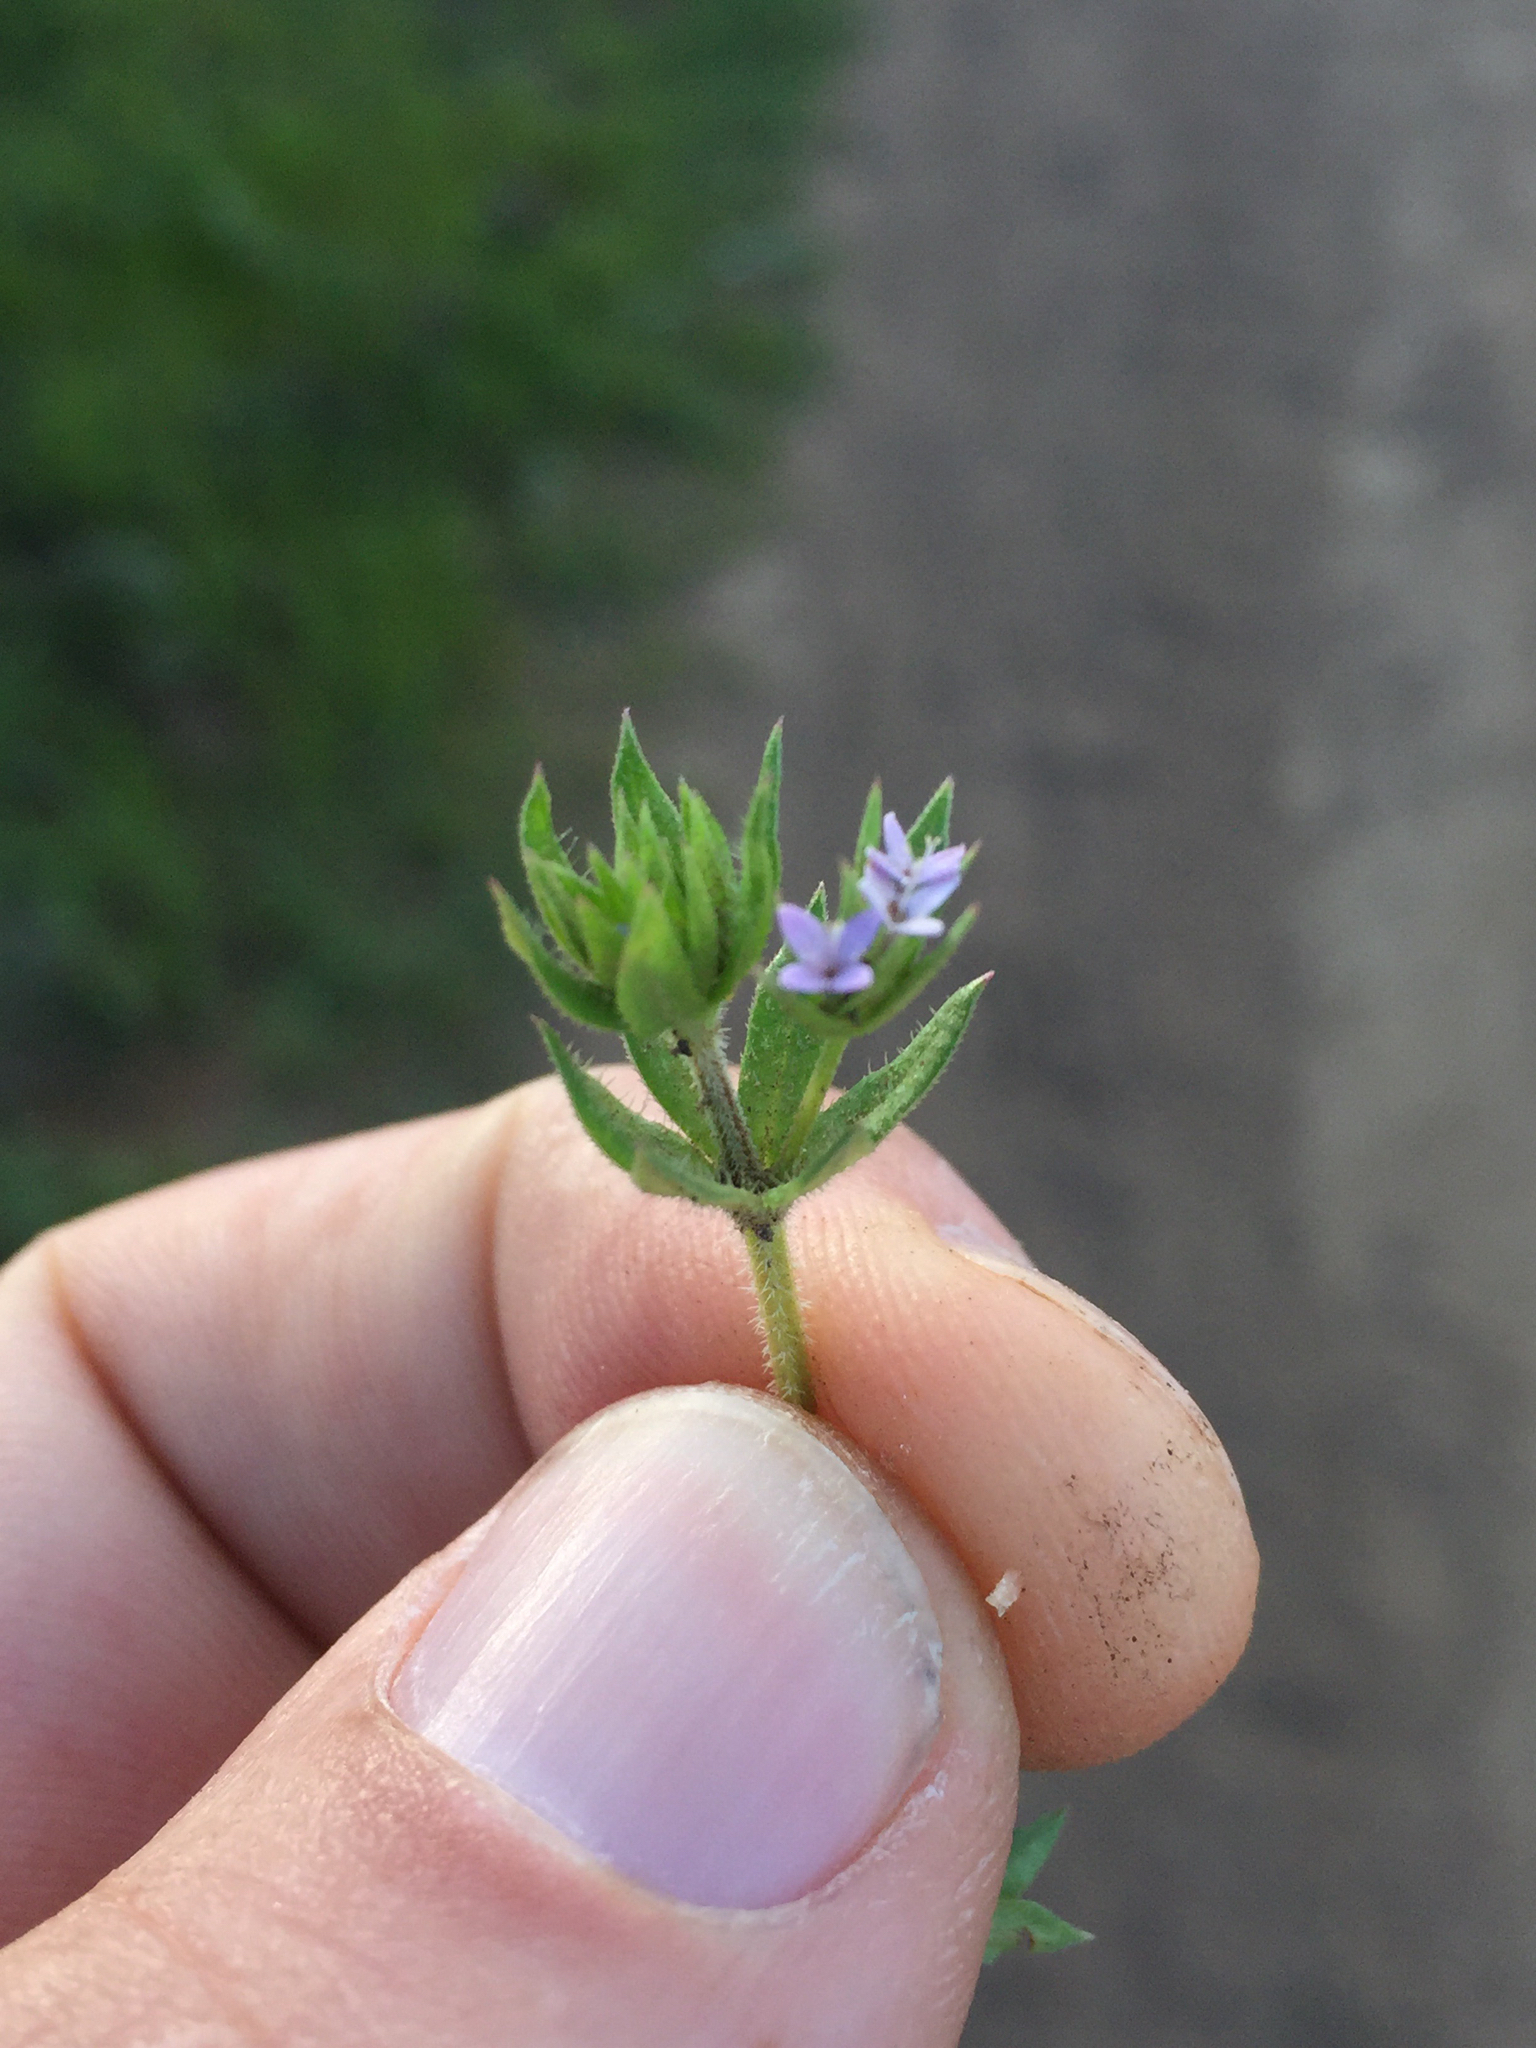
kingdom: Plantae
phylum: Tracheophyta
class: Magnoliopsida
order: Gentianales
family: Rubiaceae
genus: Sherardia
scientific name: Sherardia arvensis
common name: Field madder
